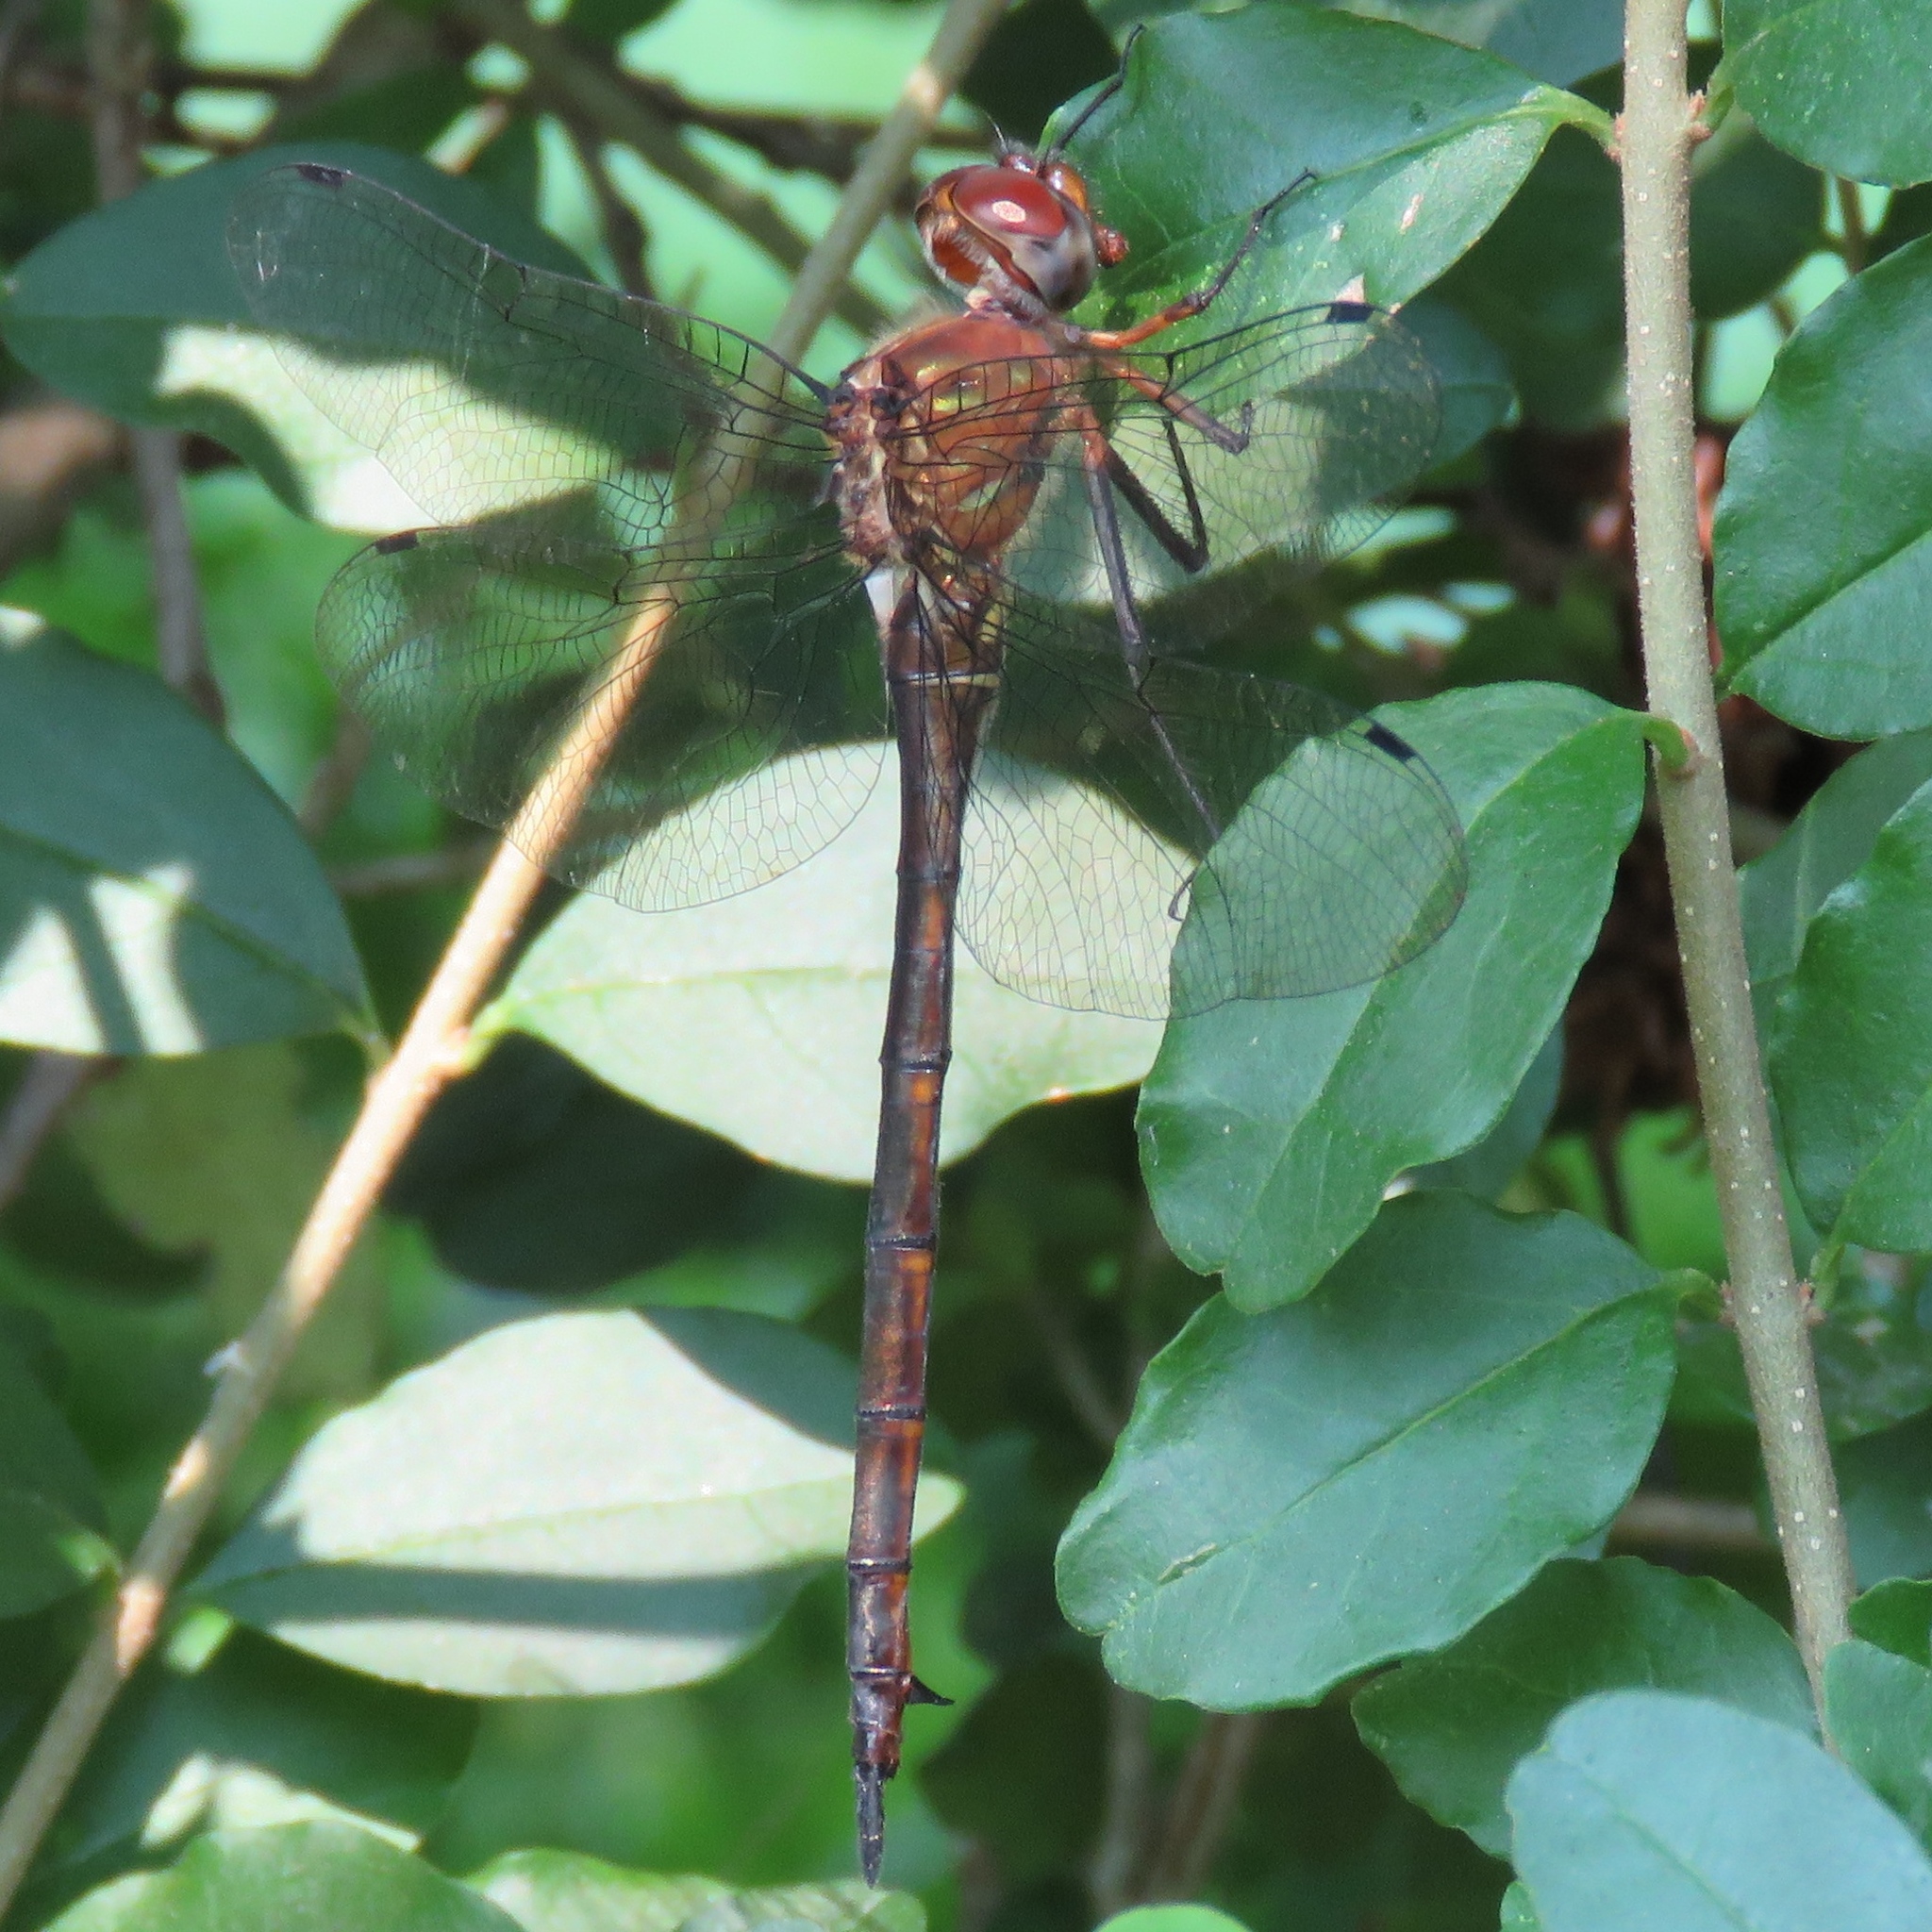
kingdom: Animalia
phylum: Arthropoda
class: Insecta
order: Odonata
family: Corduliidae
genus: Somatochlora
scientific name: Somatochlora linearis
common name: Mocha emerald
